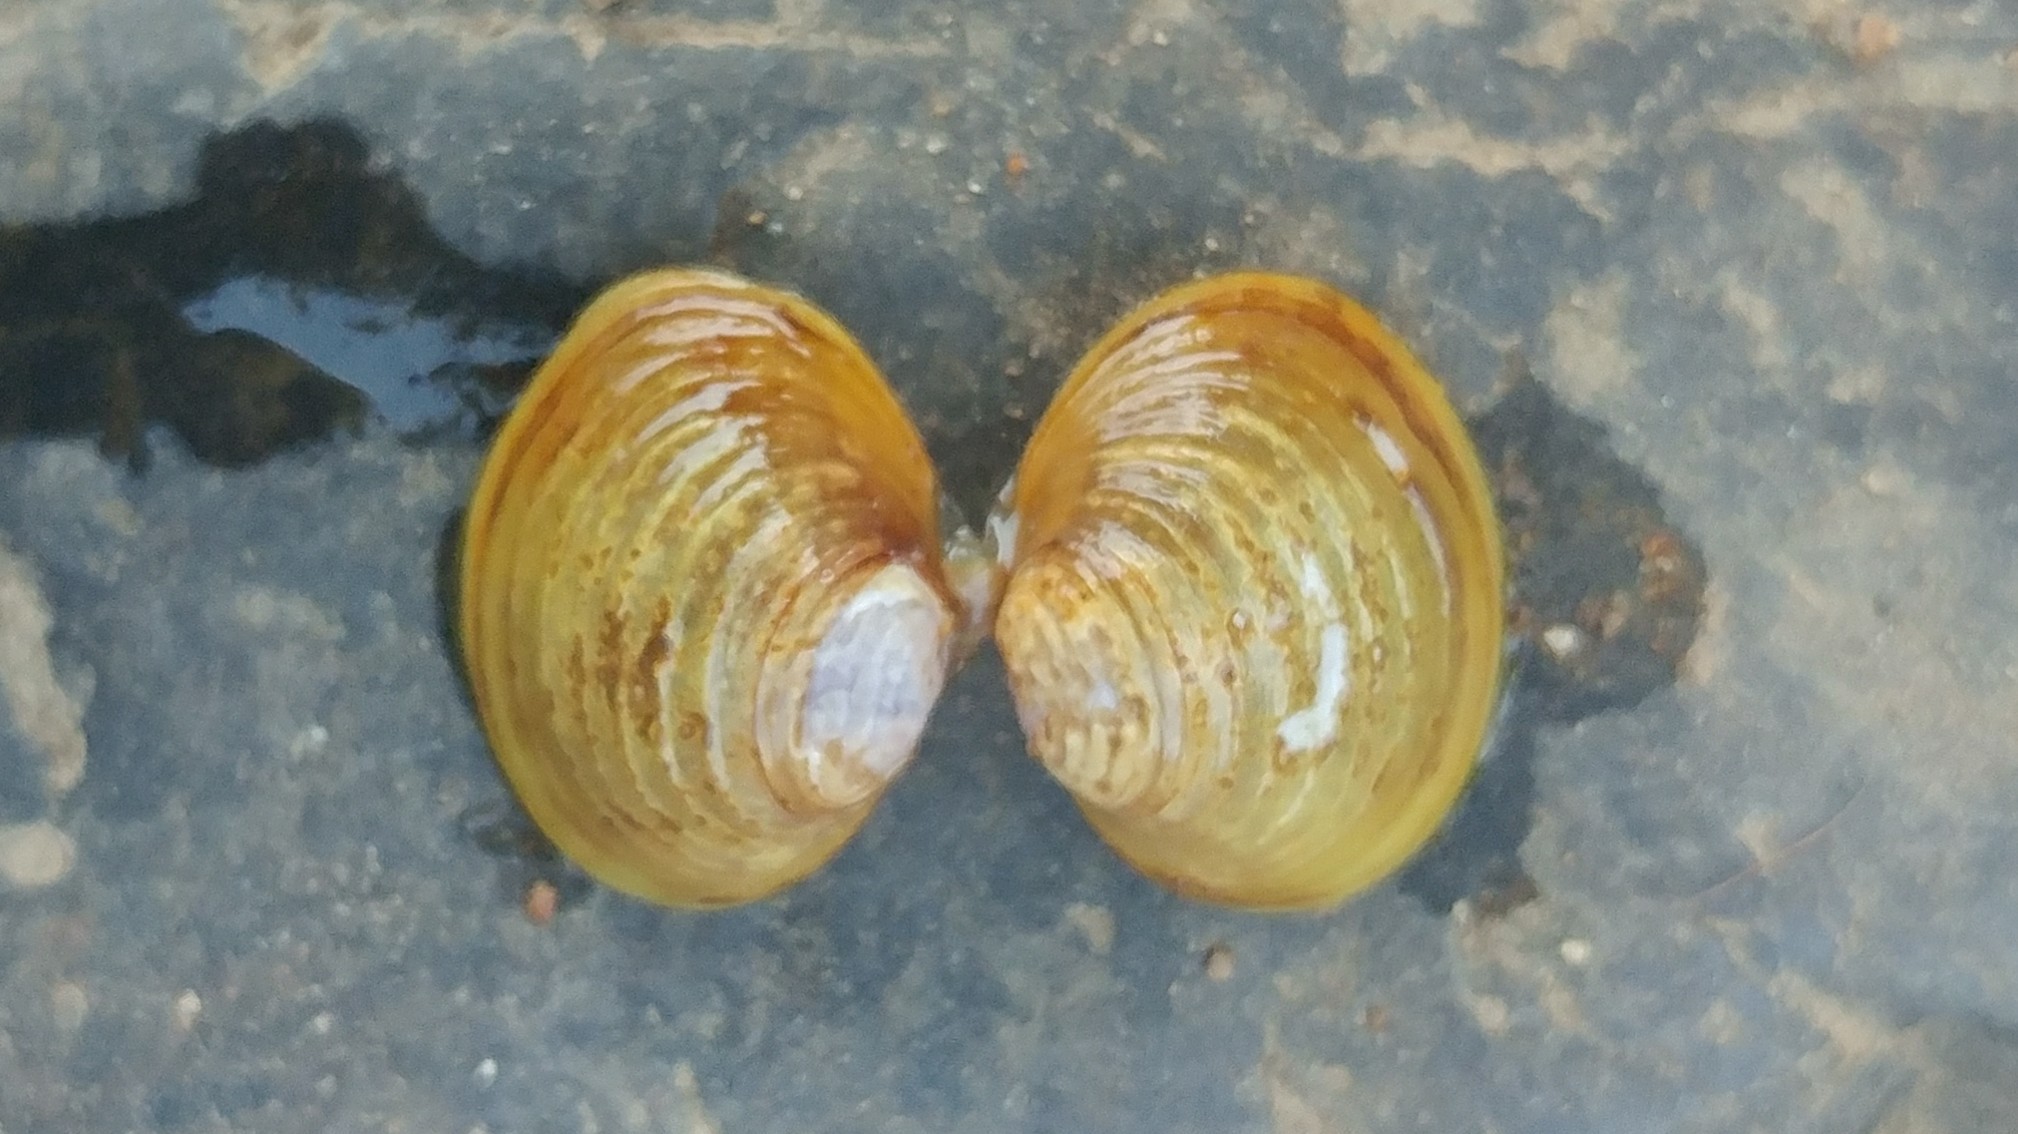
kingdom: Animalia
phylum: Mollusca
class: Bivalvia
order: Venerida
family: Cyrenidae
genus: Corbicula
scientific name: Corbicula fluminea
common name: Asian clam
